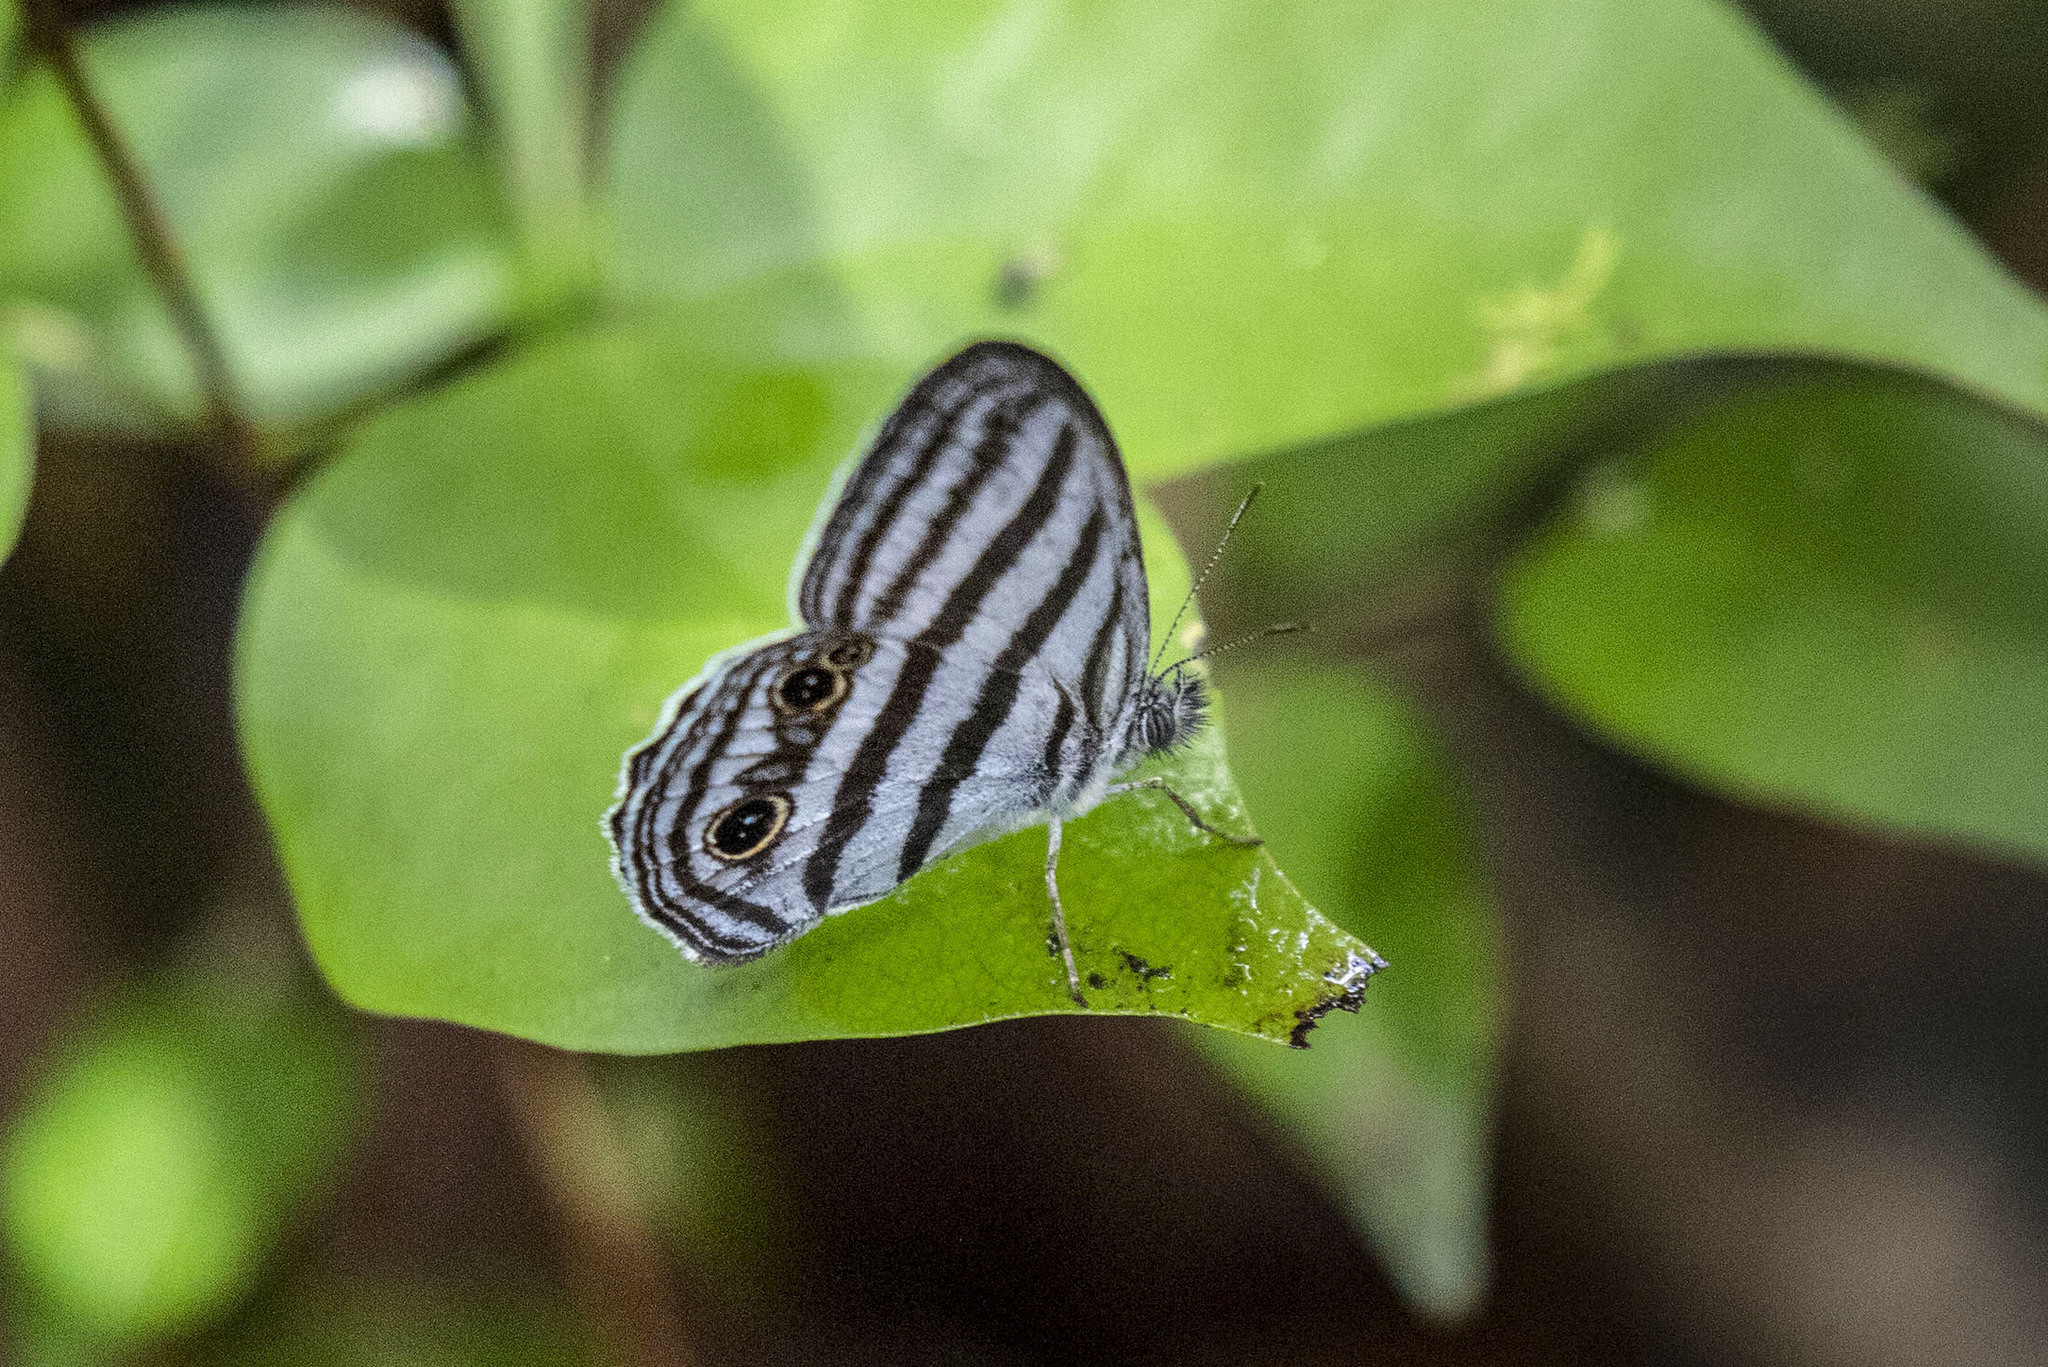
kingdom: Animalia
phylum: Arthropoda
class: Insecta
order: Lepidoptera
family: Nymphalidae
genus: Paryphthimoides
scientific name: Paryphthimoides brixius
